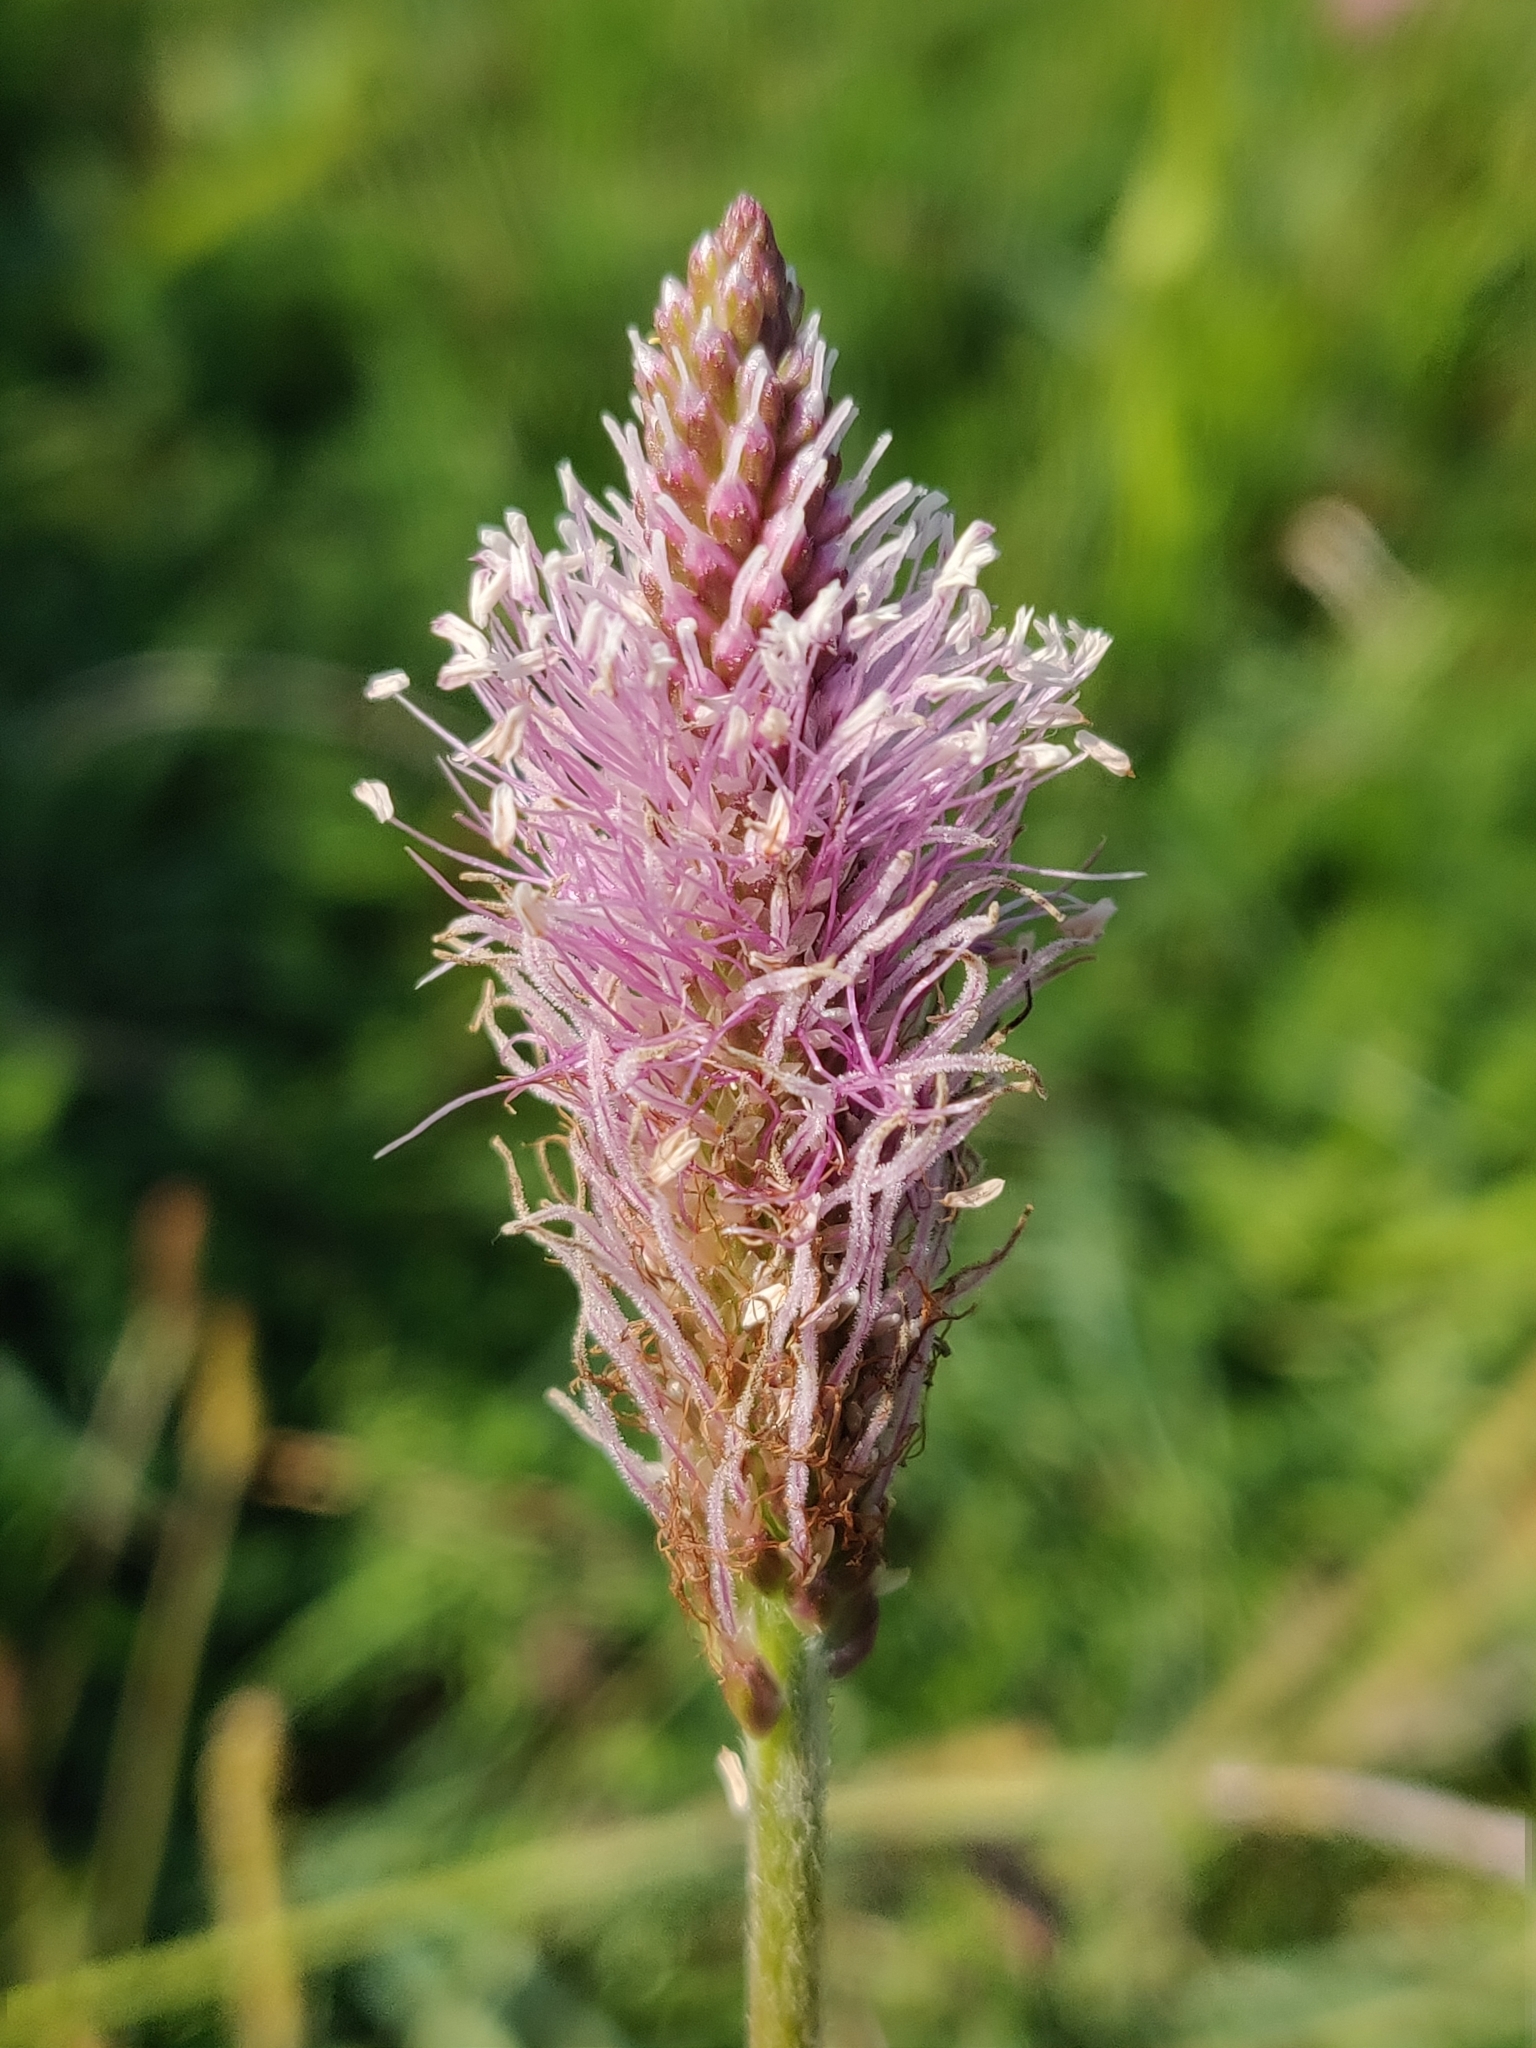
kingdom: Plantae
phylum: Tracheophyta
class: Magnoliopsida
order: Lamiales
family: Plantaginaceae
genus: Plantago
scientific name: Plantago media
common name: Hoary plantain
